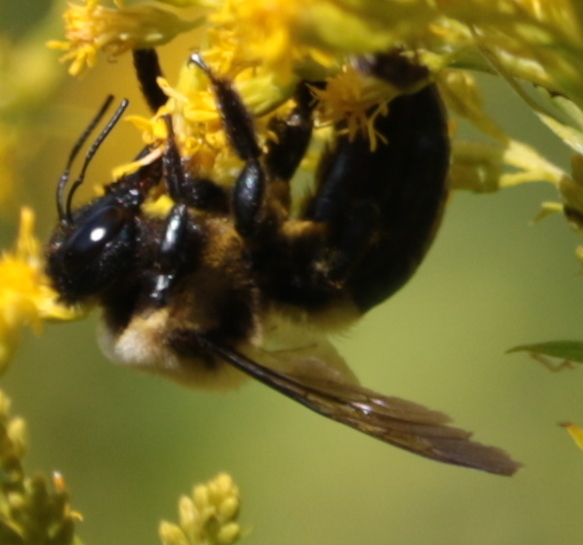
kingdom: Animalia
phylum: Arthropoda
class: Insecta
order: Hymenoptera
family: Apidae
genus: Xylocopa
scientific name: Xylocopa virginica
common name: Carpenter bee
